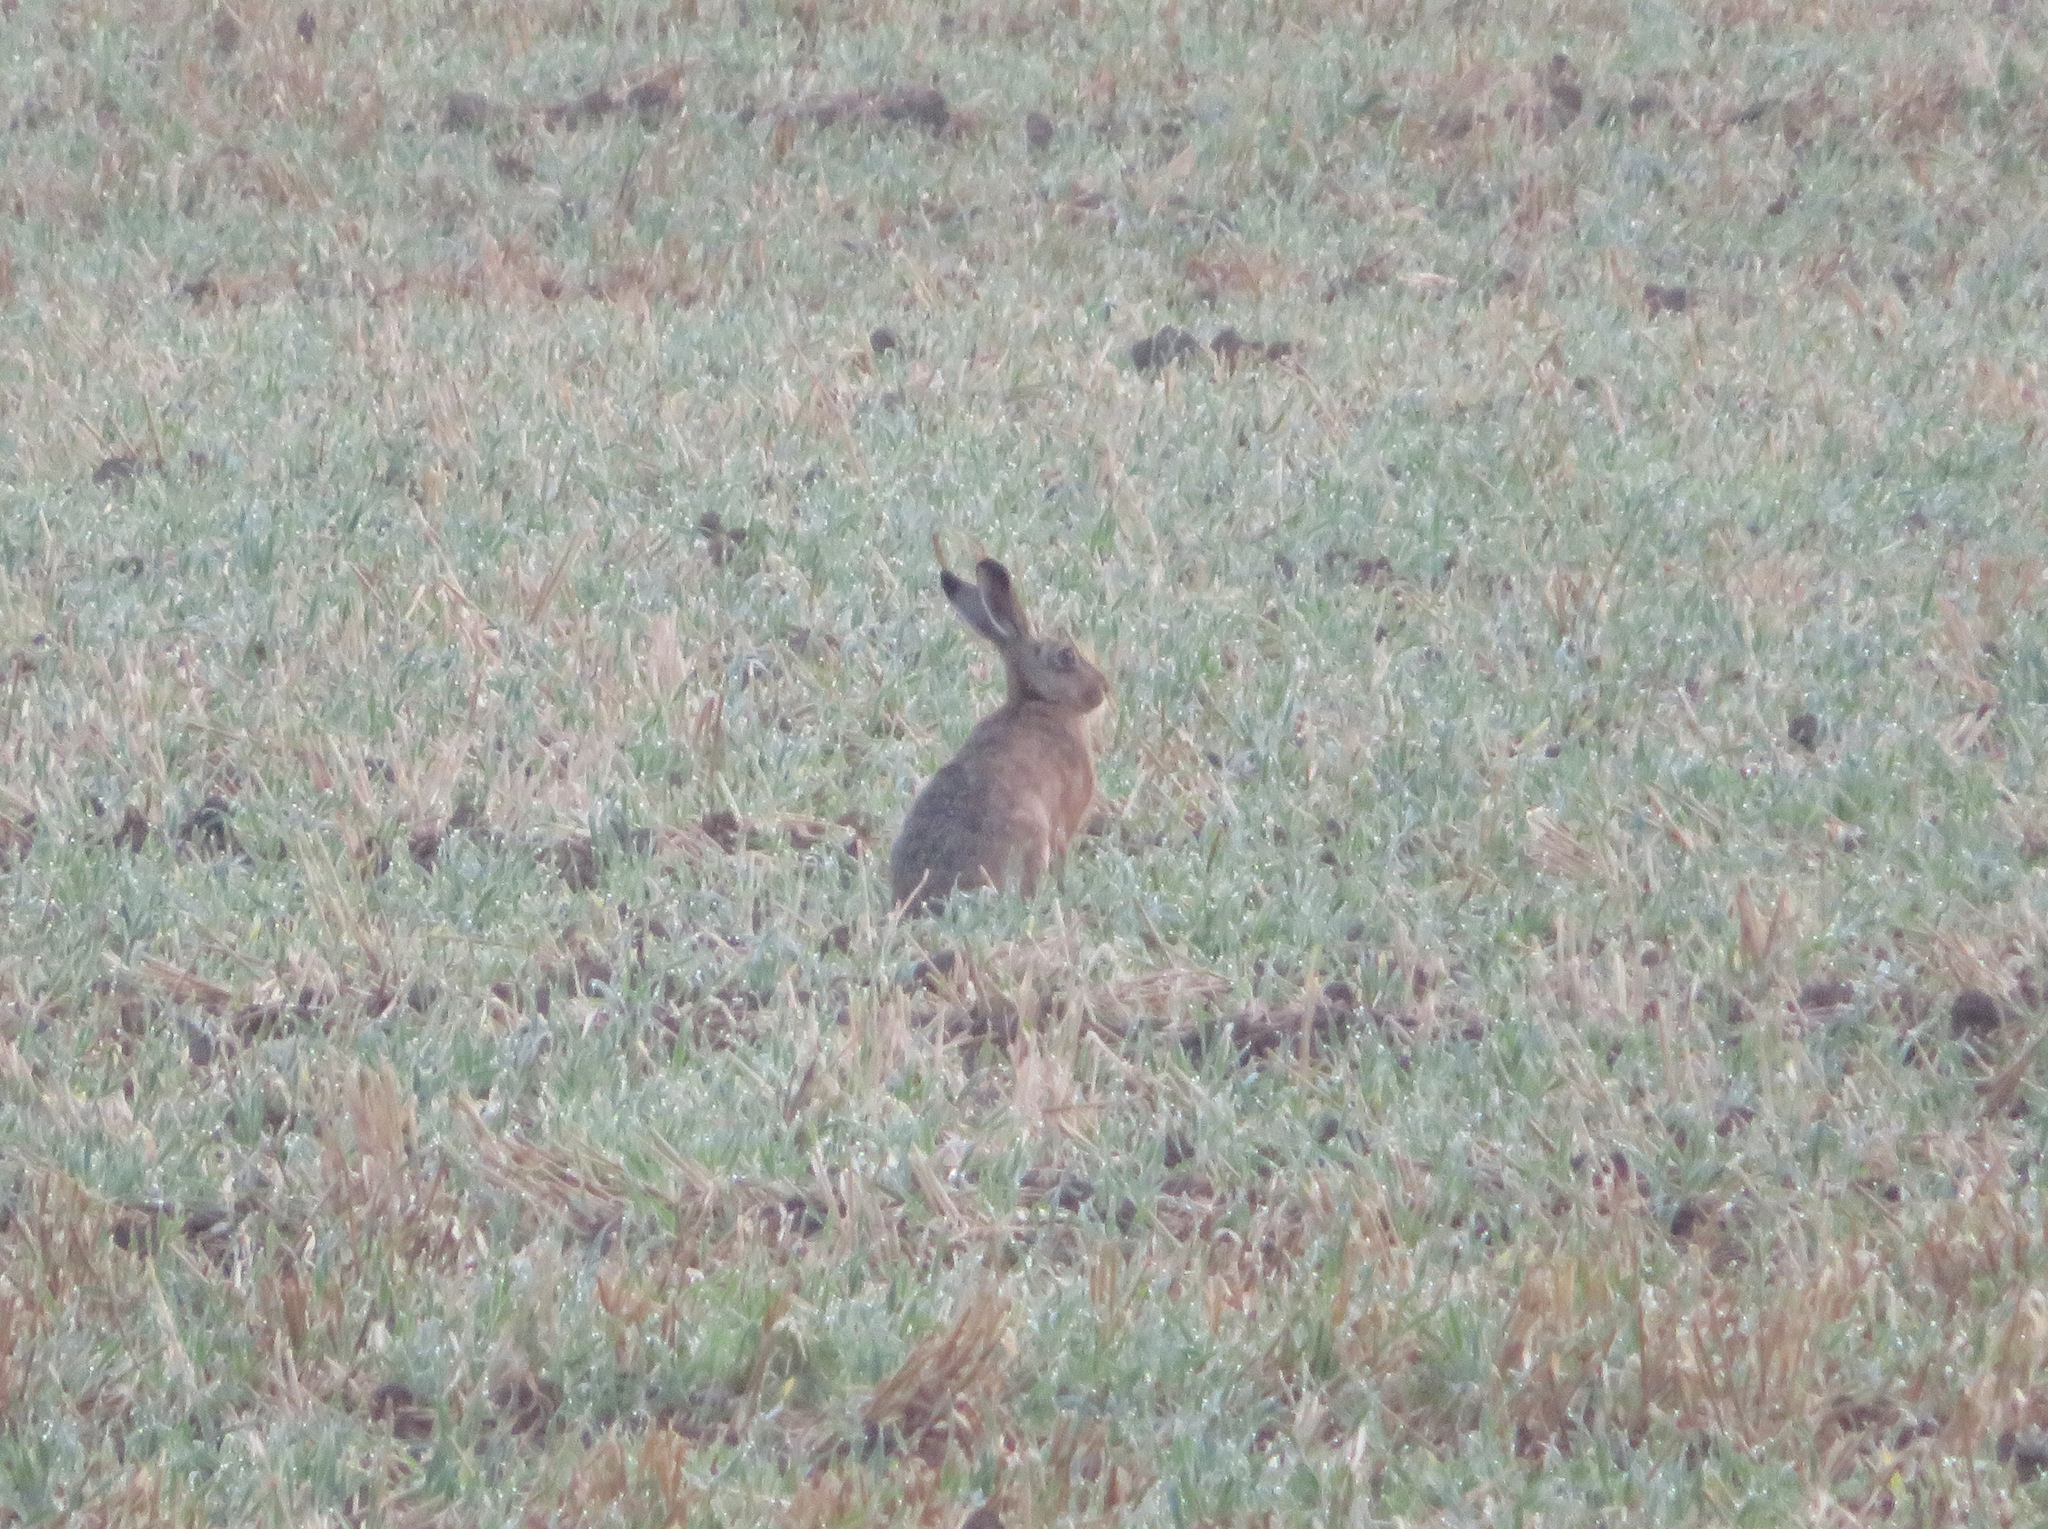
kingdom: Animalia
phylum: Chordata
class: Mammalia
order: Lagomorpha
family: Leporidae
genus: Lepus
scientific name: Lepus europaeus
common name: European hare
